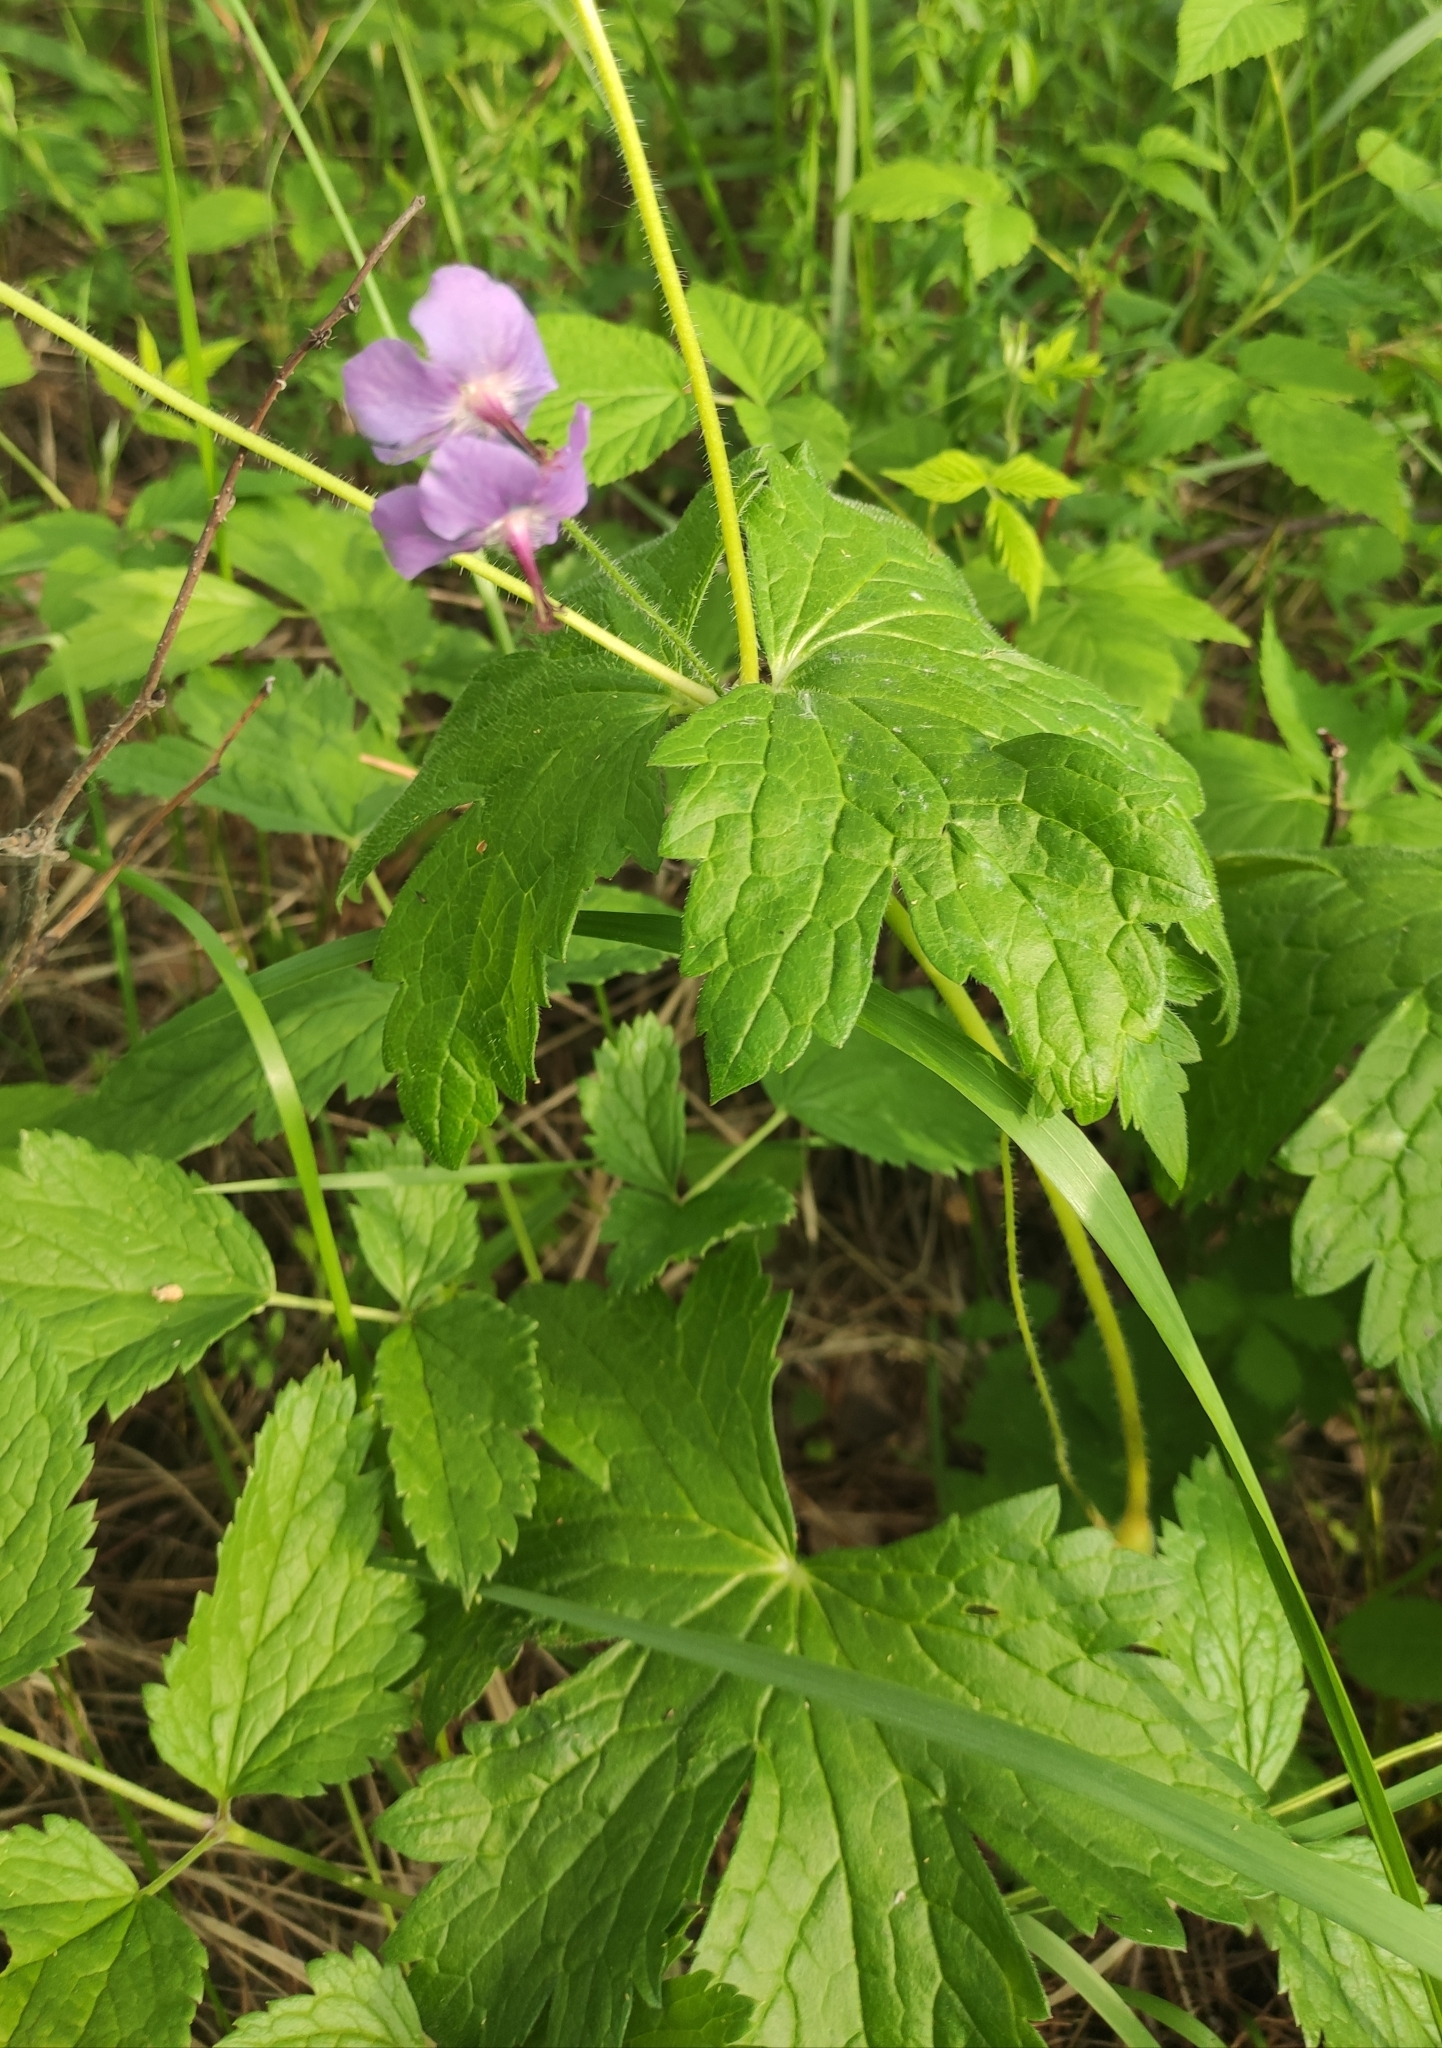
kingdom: Plantae
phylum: Tracheophyta
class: Magnoliopsida
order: Geraniales
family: Geraniaceae
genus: Geranium
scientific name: Geranium platyanthum
